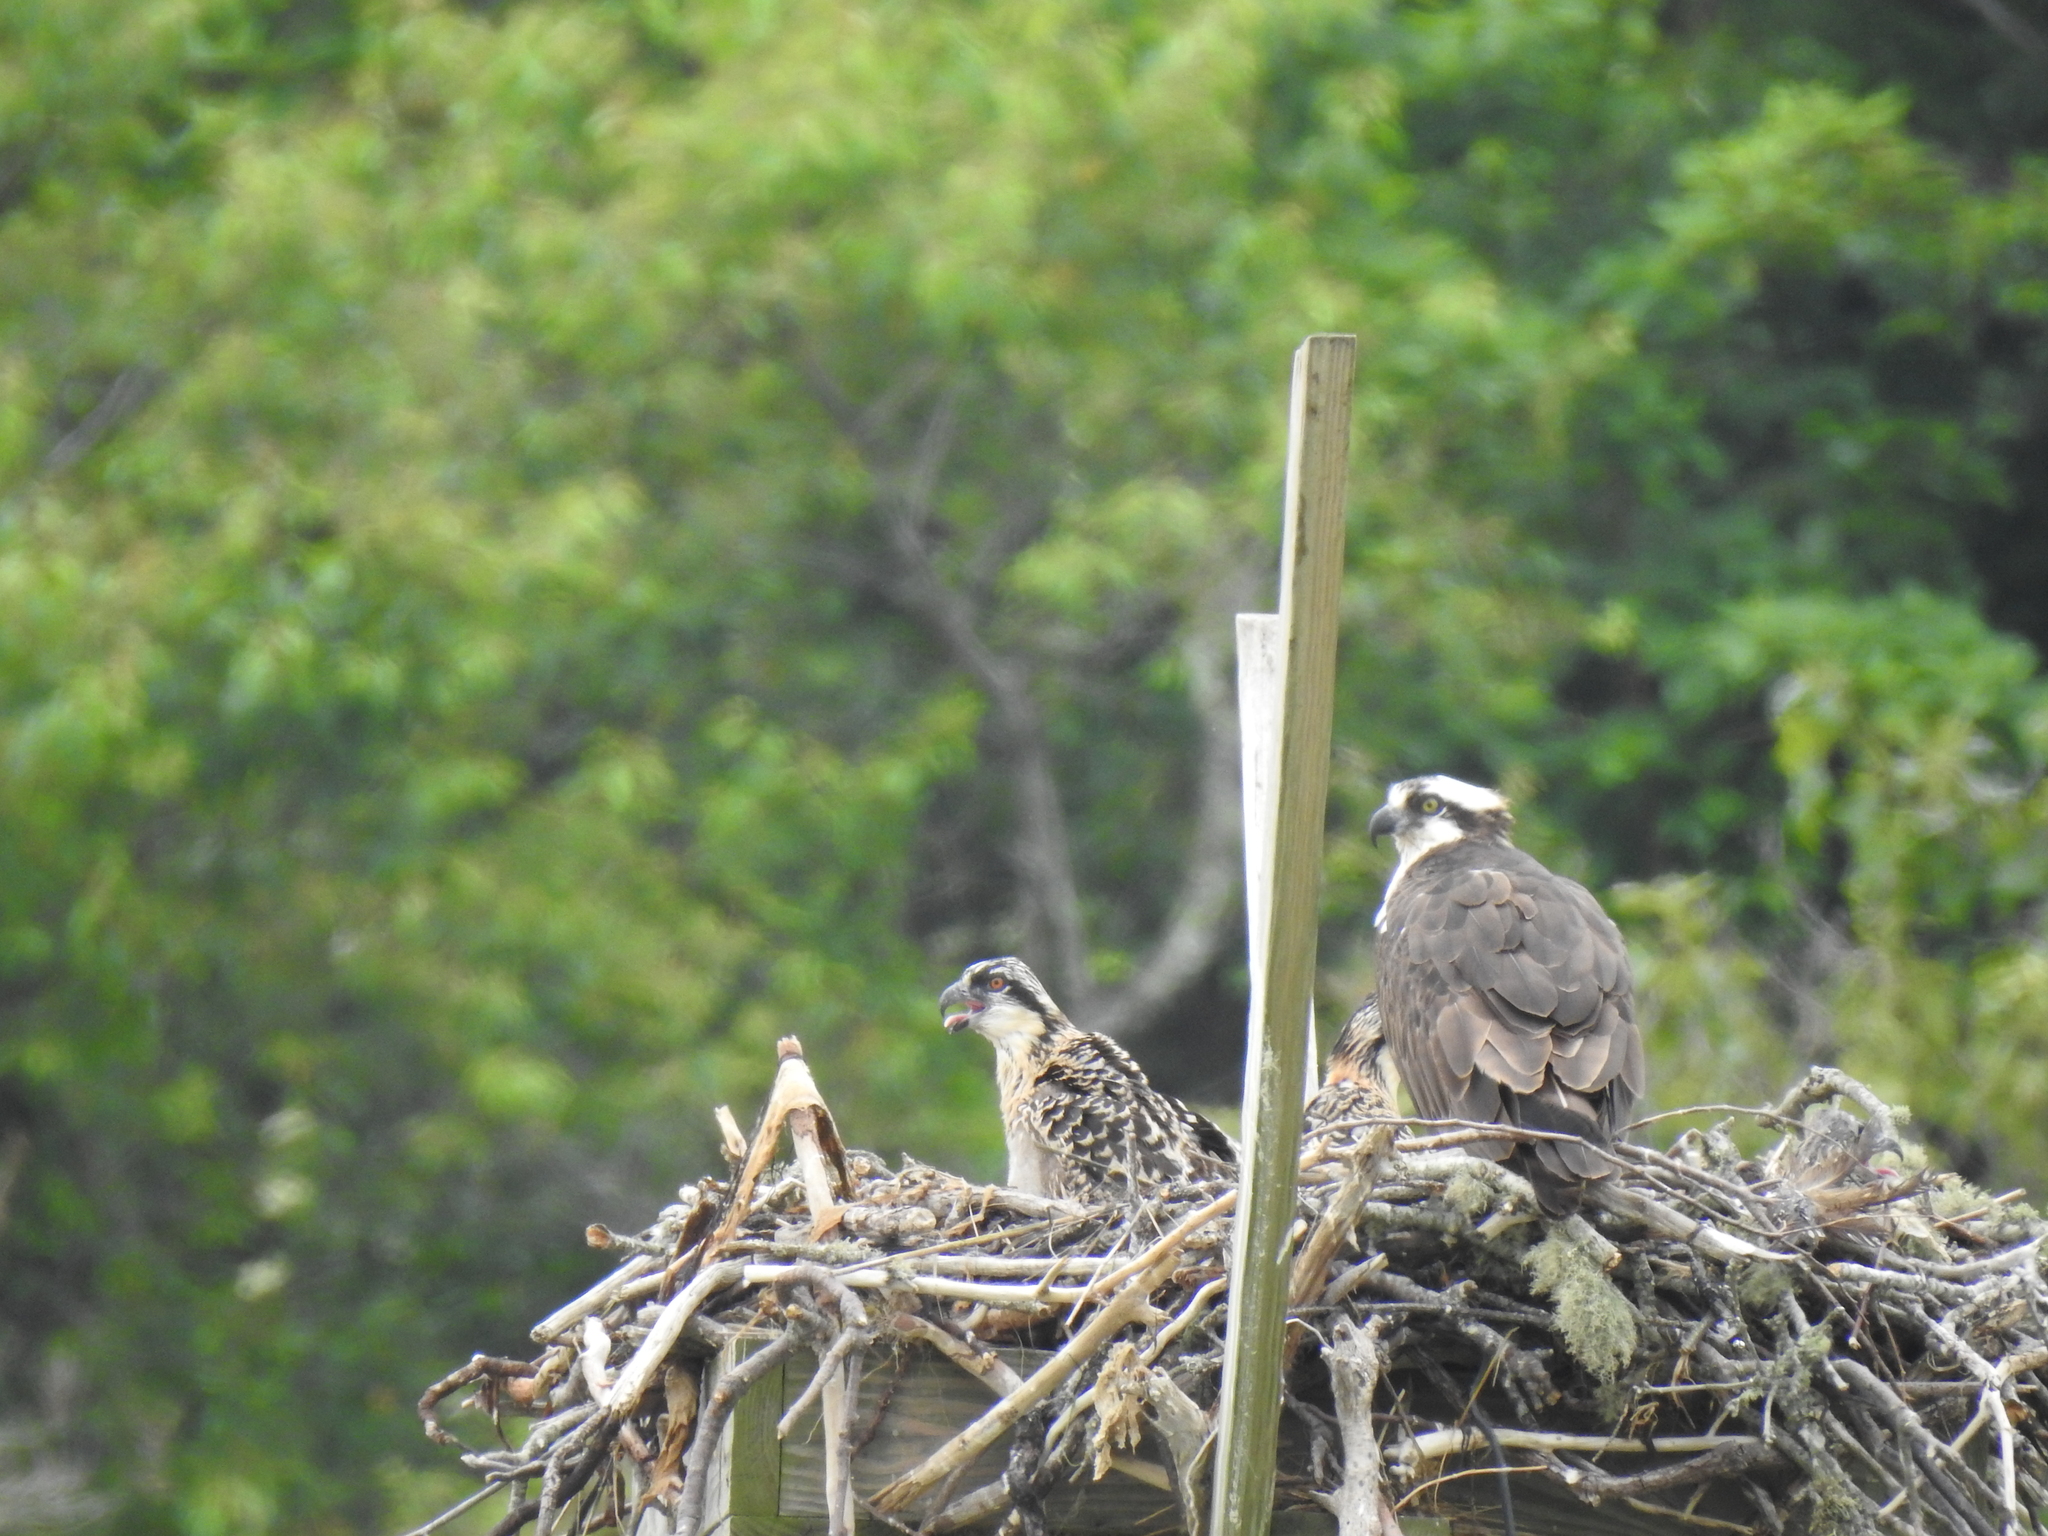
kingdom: Animalia
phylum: Chordata
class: Aves
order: Accipitriformes
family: Pandionidae
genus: Pandion
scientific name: Pandion haliaetus
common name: Osprey
